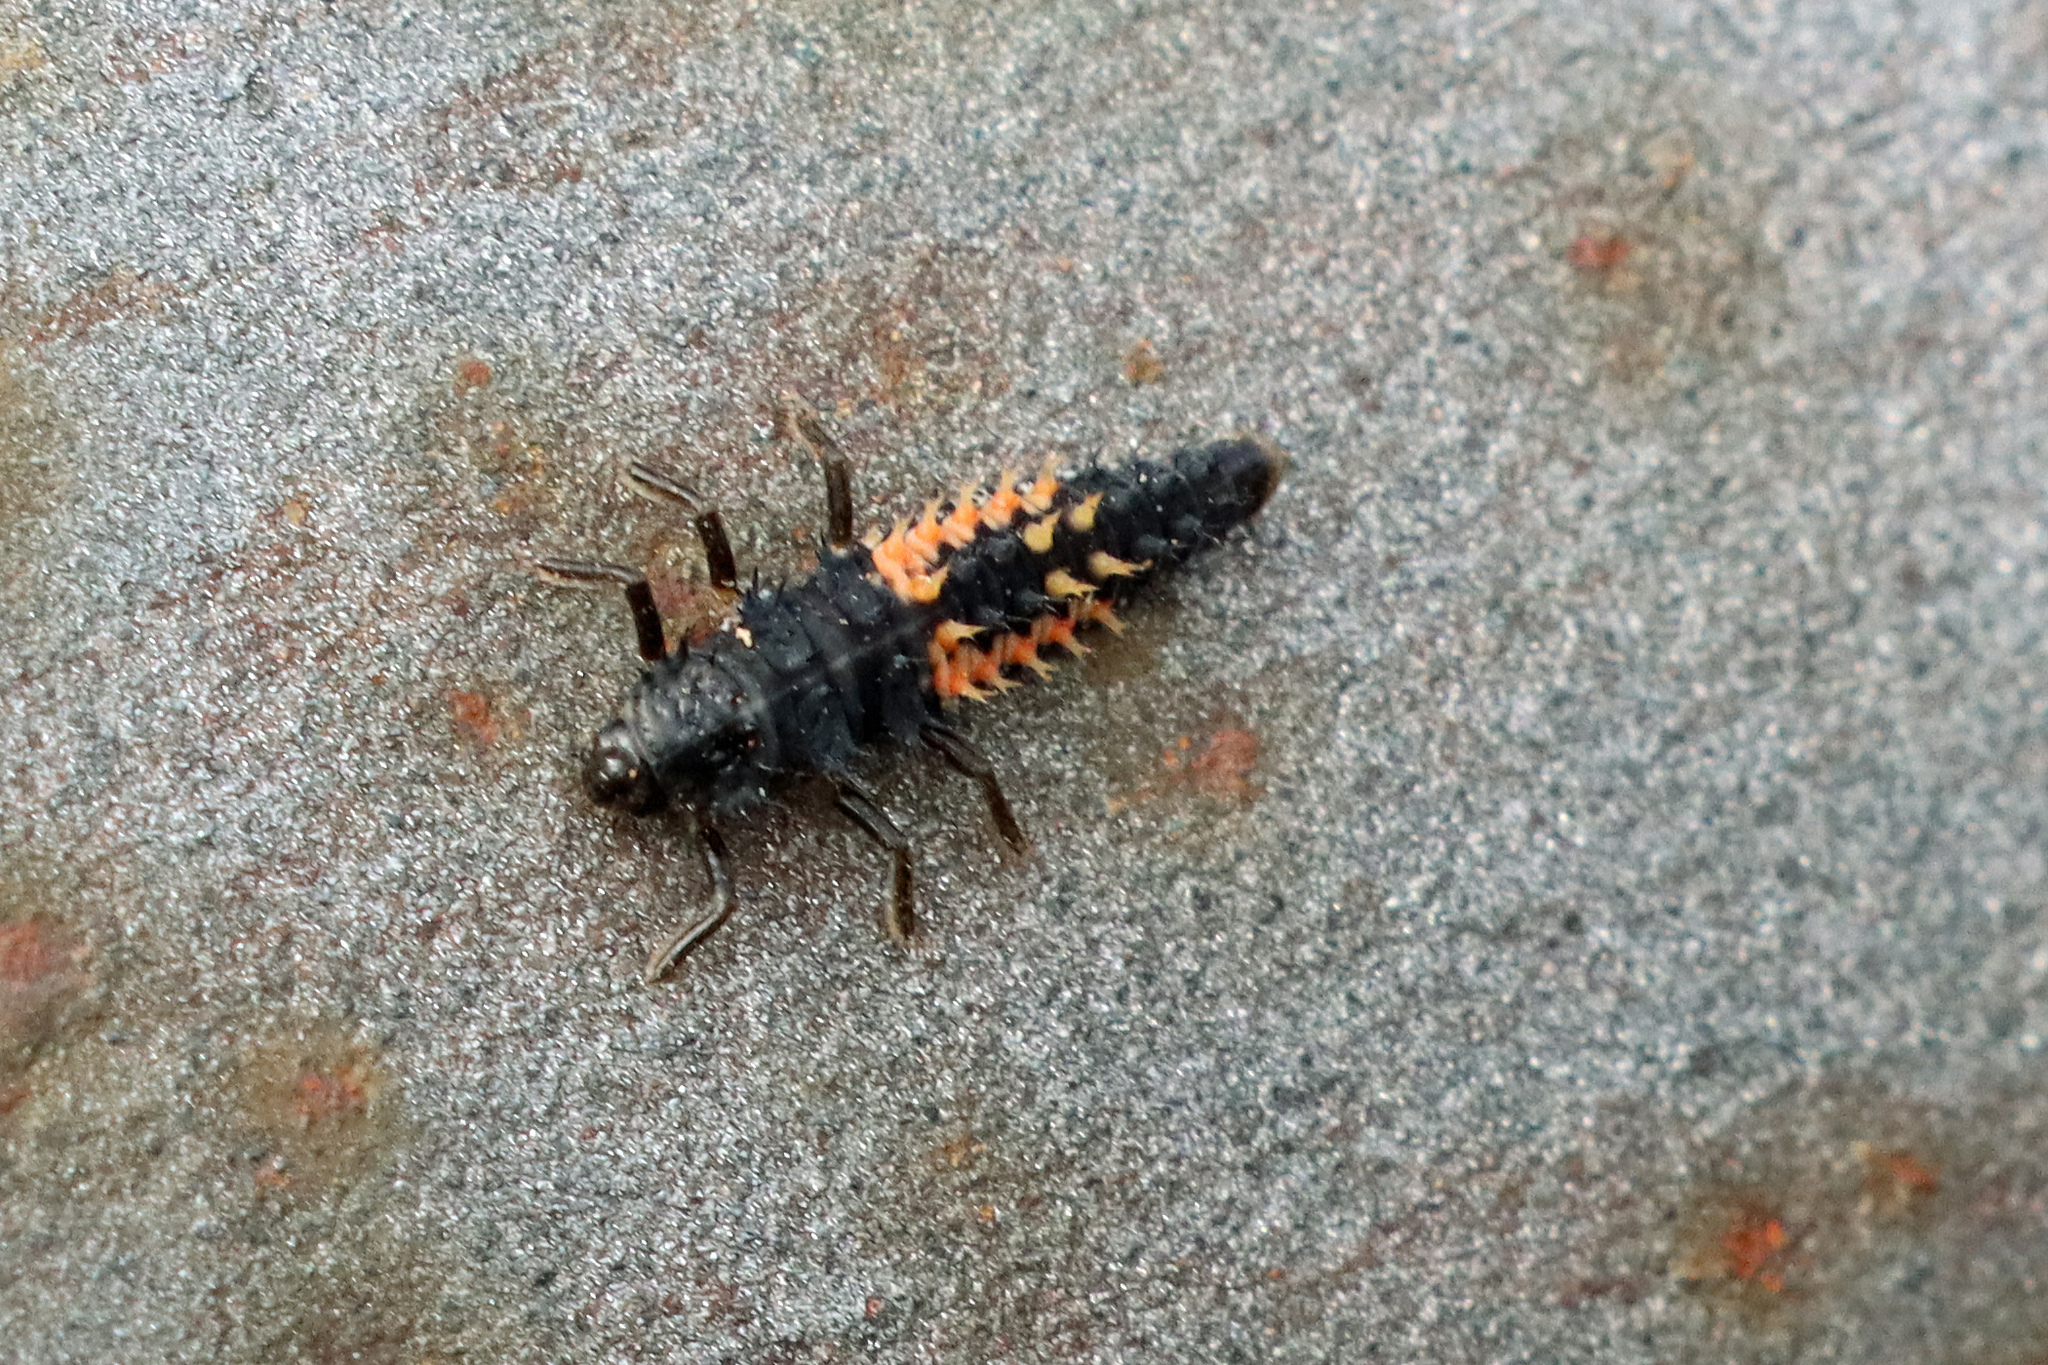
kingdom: Animalia
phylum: Arthropoda
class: Insecta
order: Coleoptera
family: Coccinellidae
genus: Harmonia
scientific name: Harmonia axyridis
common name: Harlequin ladybird
